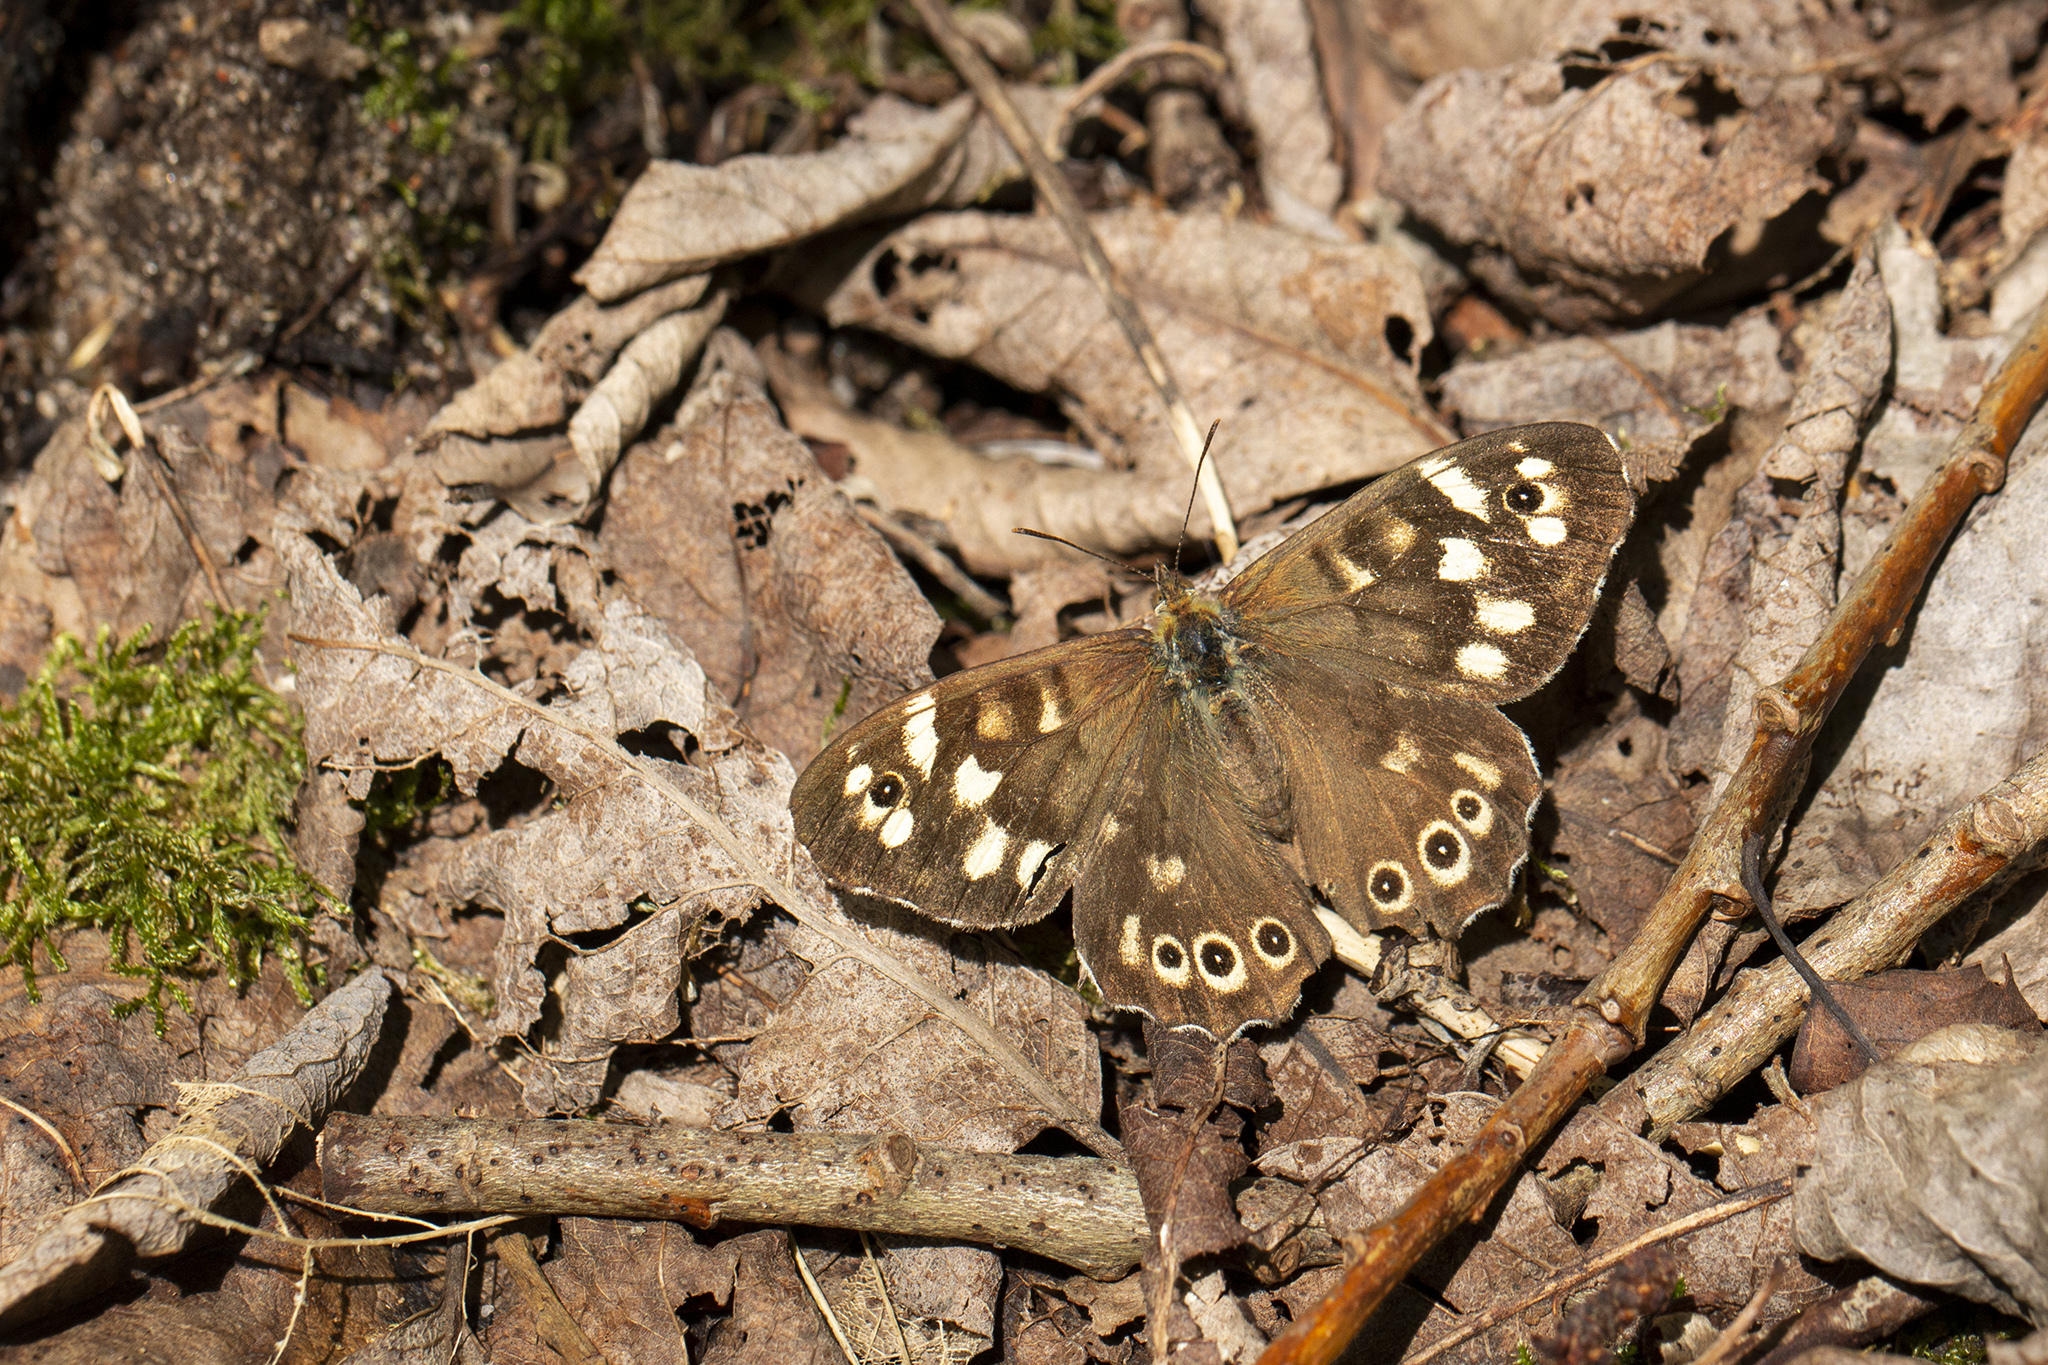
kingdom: Animalia
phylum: Arthropoda
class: Insecta
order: Lepidoptera
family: Nymphalidae
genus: Pararge
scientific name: Pararge aegeria
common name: Speckled wood
